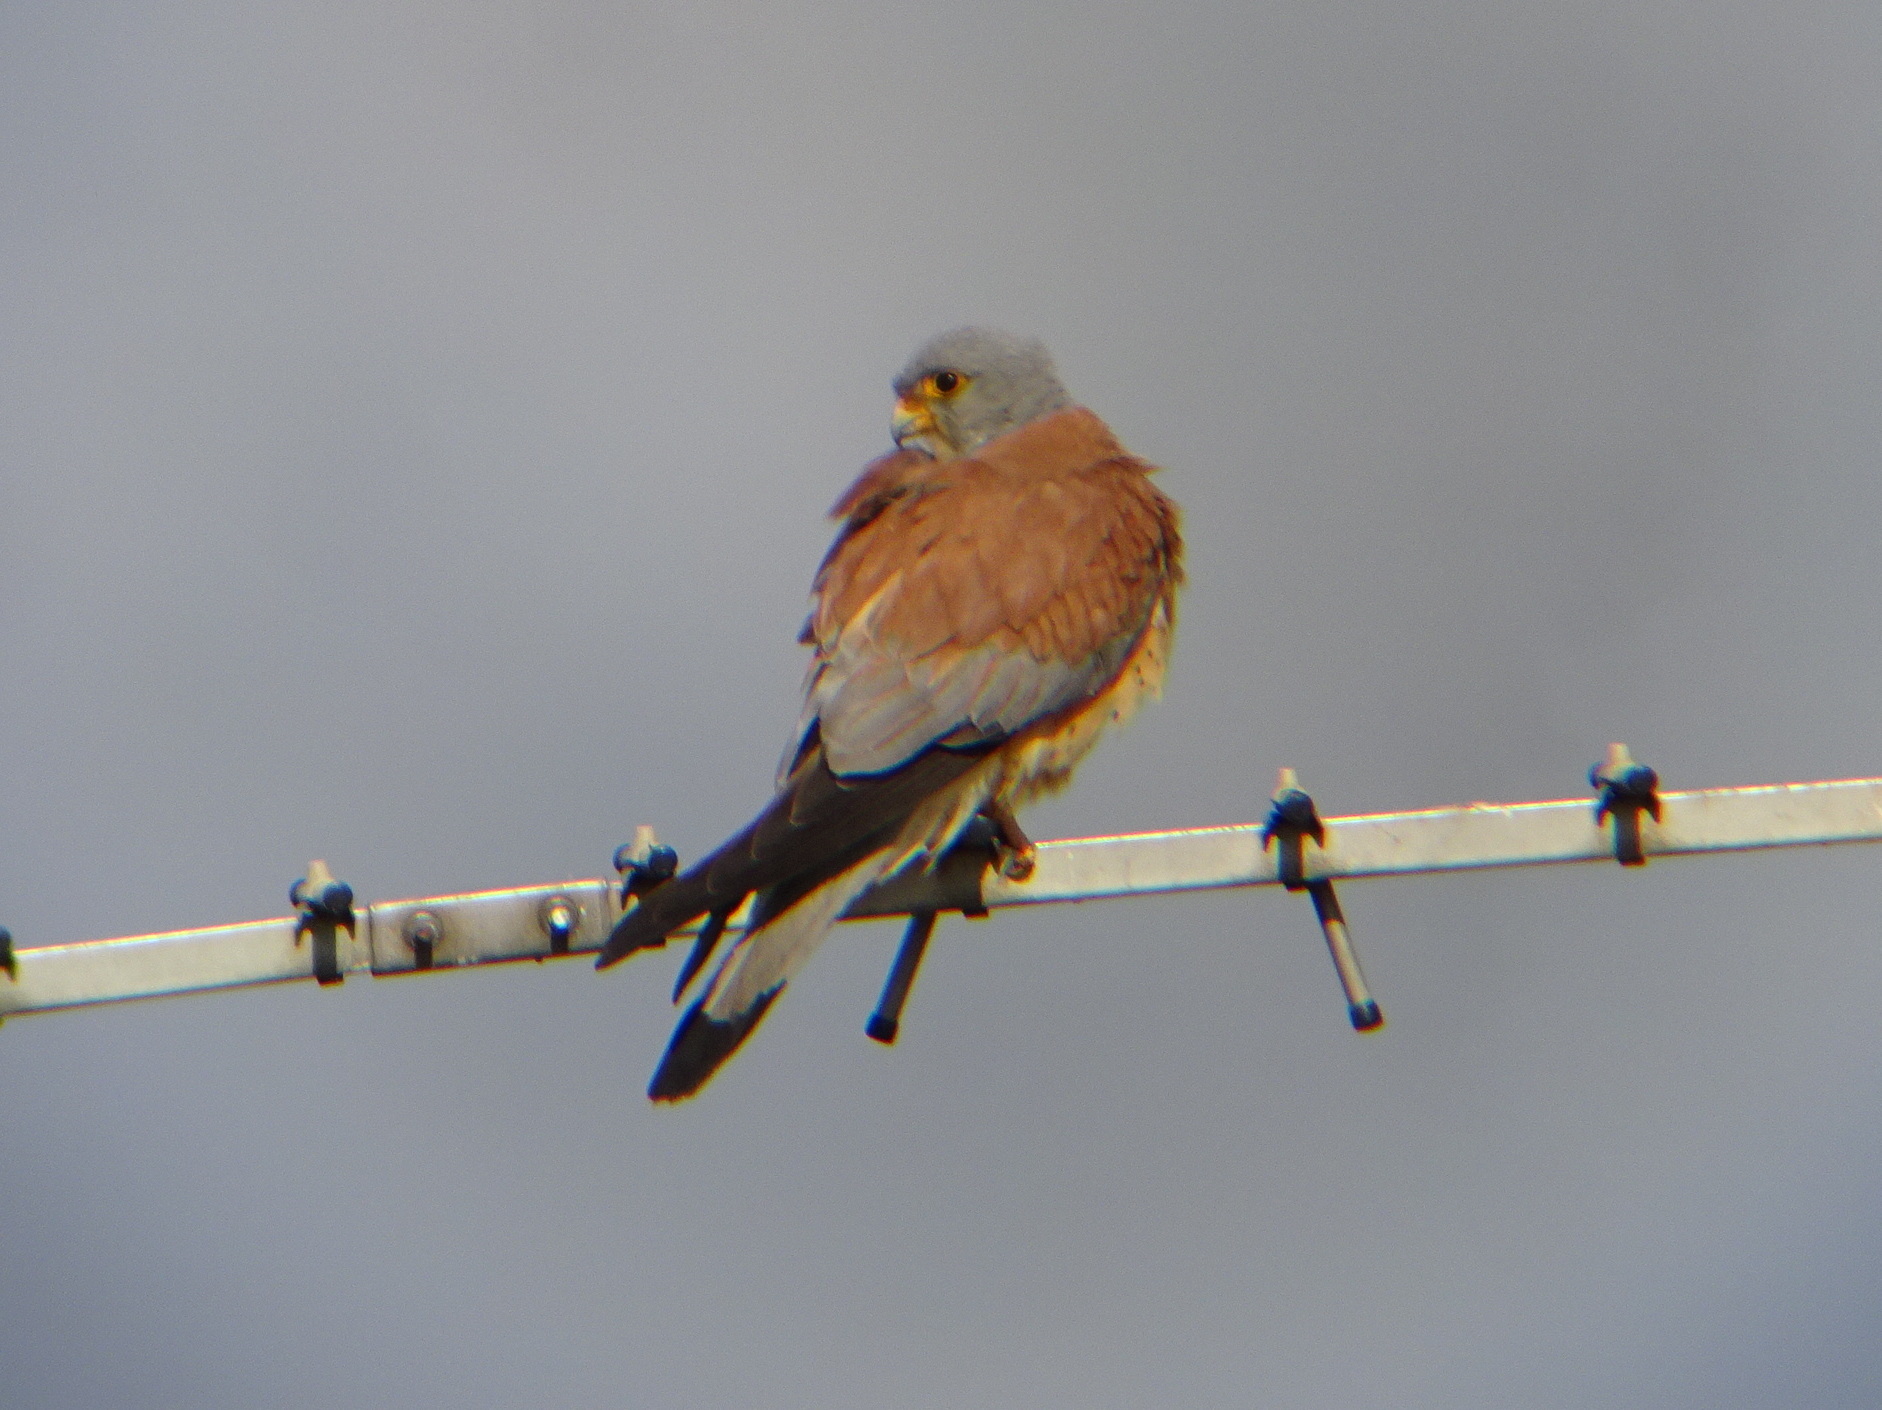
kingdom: Animalia
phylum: Chordata
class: Aves
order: Falconiformes
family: Falconidae
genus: Falco
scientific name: Falco naumanni
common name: Lesser kestrel
